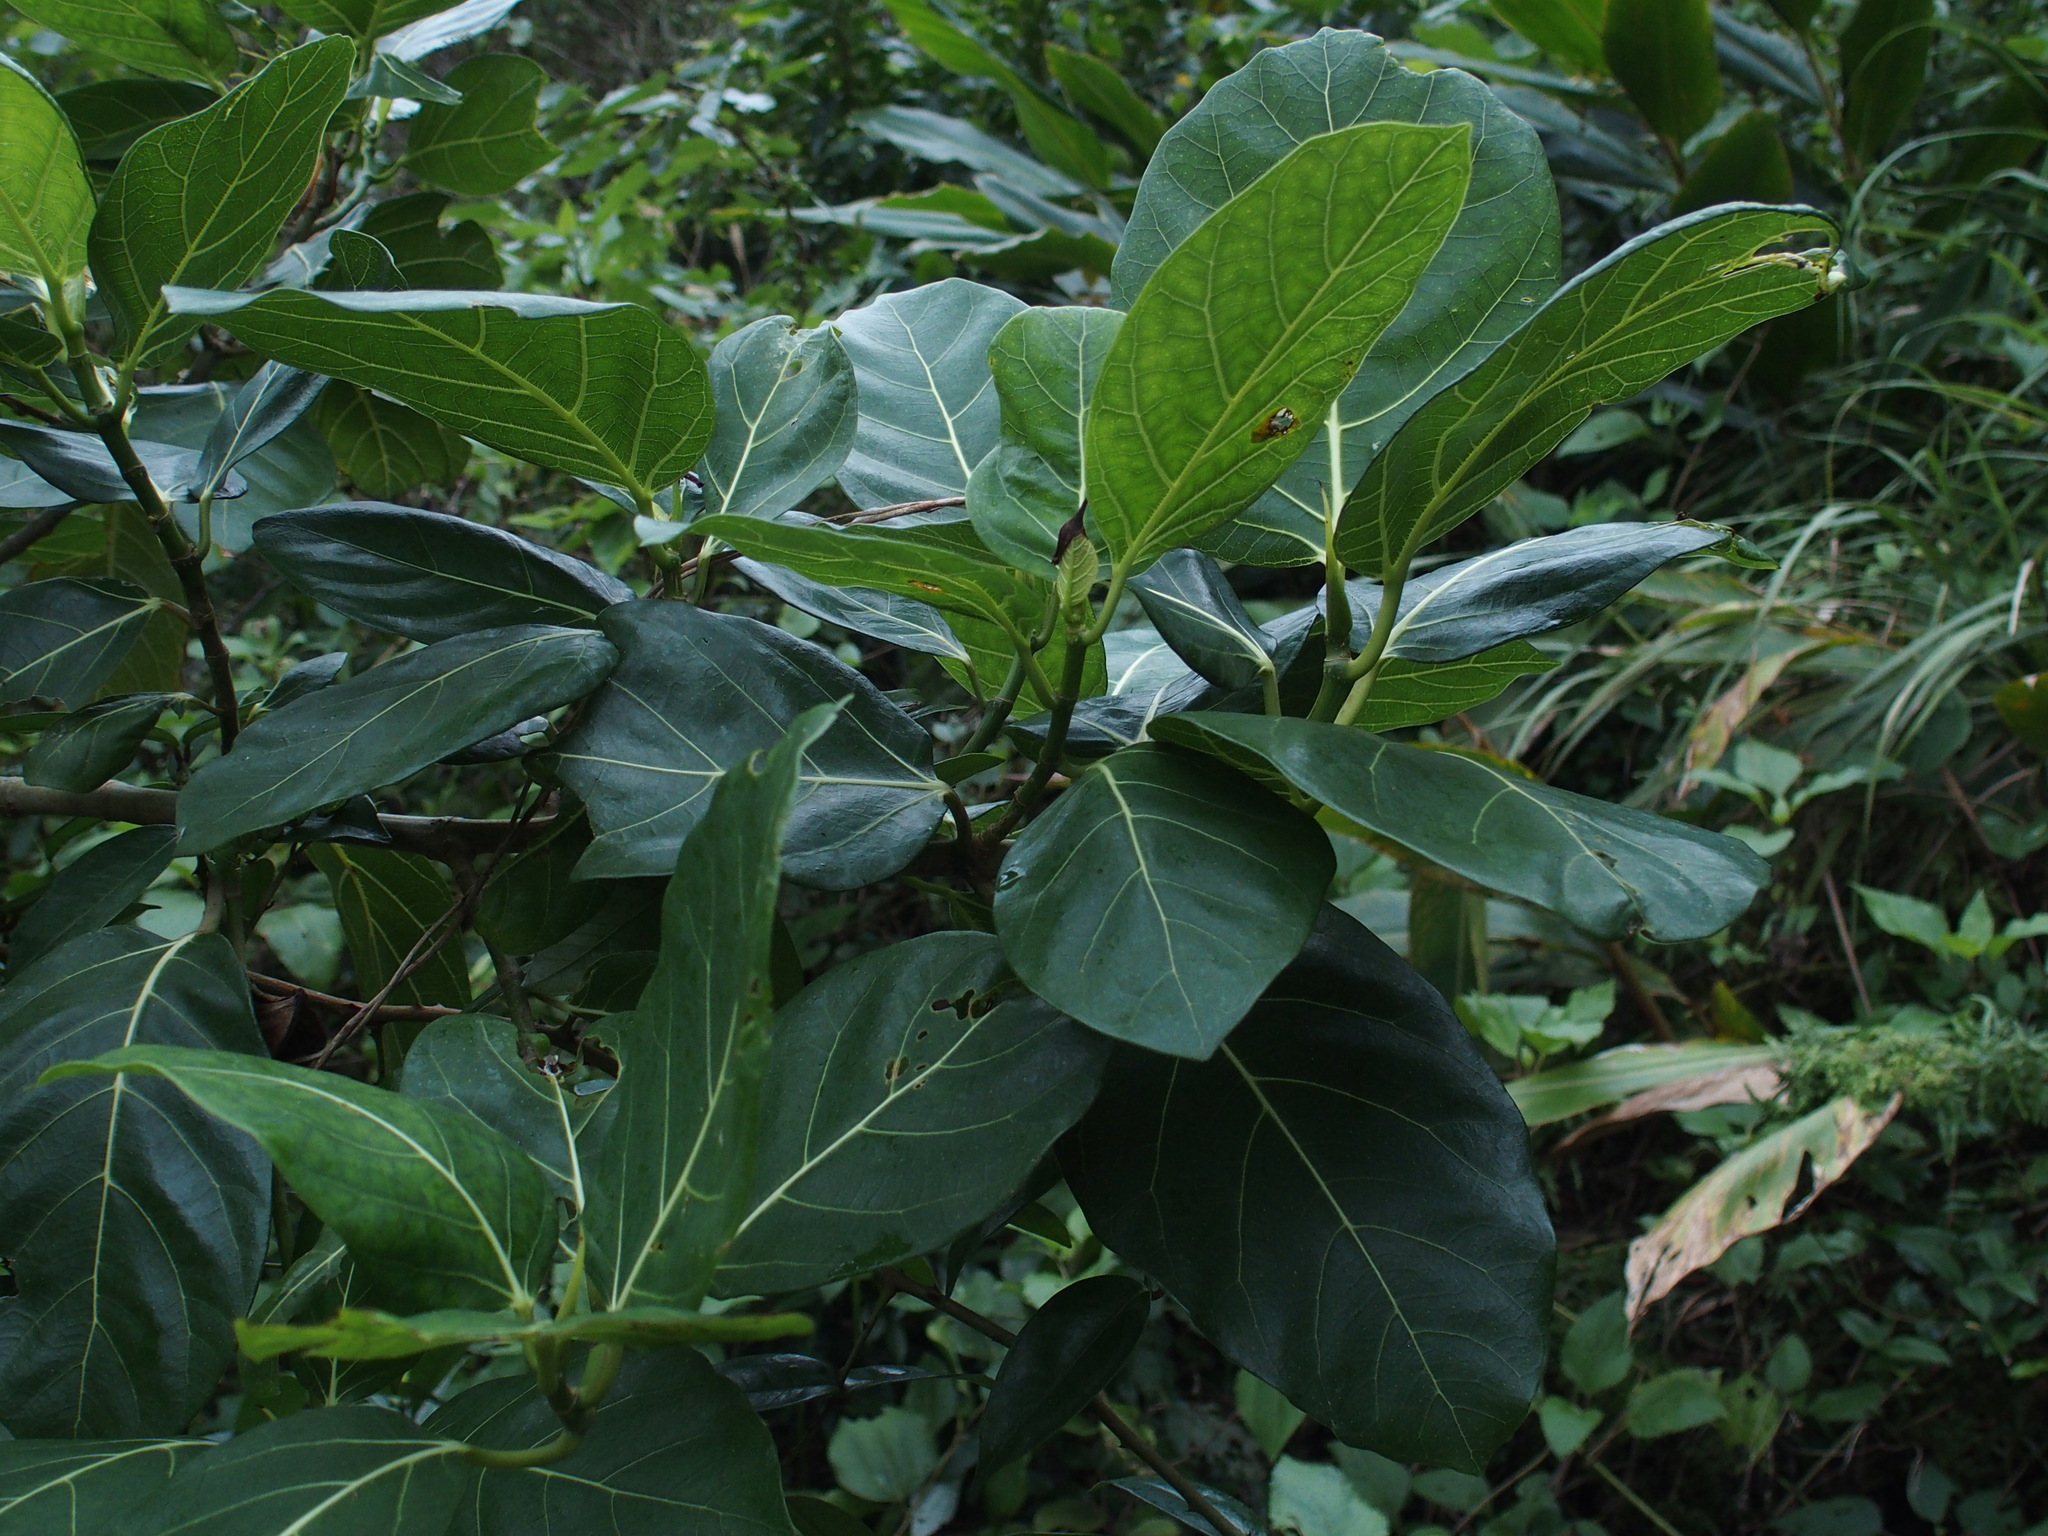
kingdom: Plantae
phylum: Tracheophyta
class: Magnoliopsida
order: Rosales
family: Moraceae
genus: Ficus
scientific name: Ficus septica
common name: Septic fig
